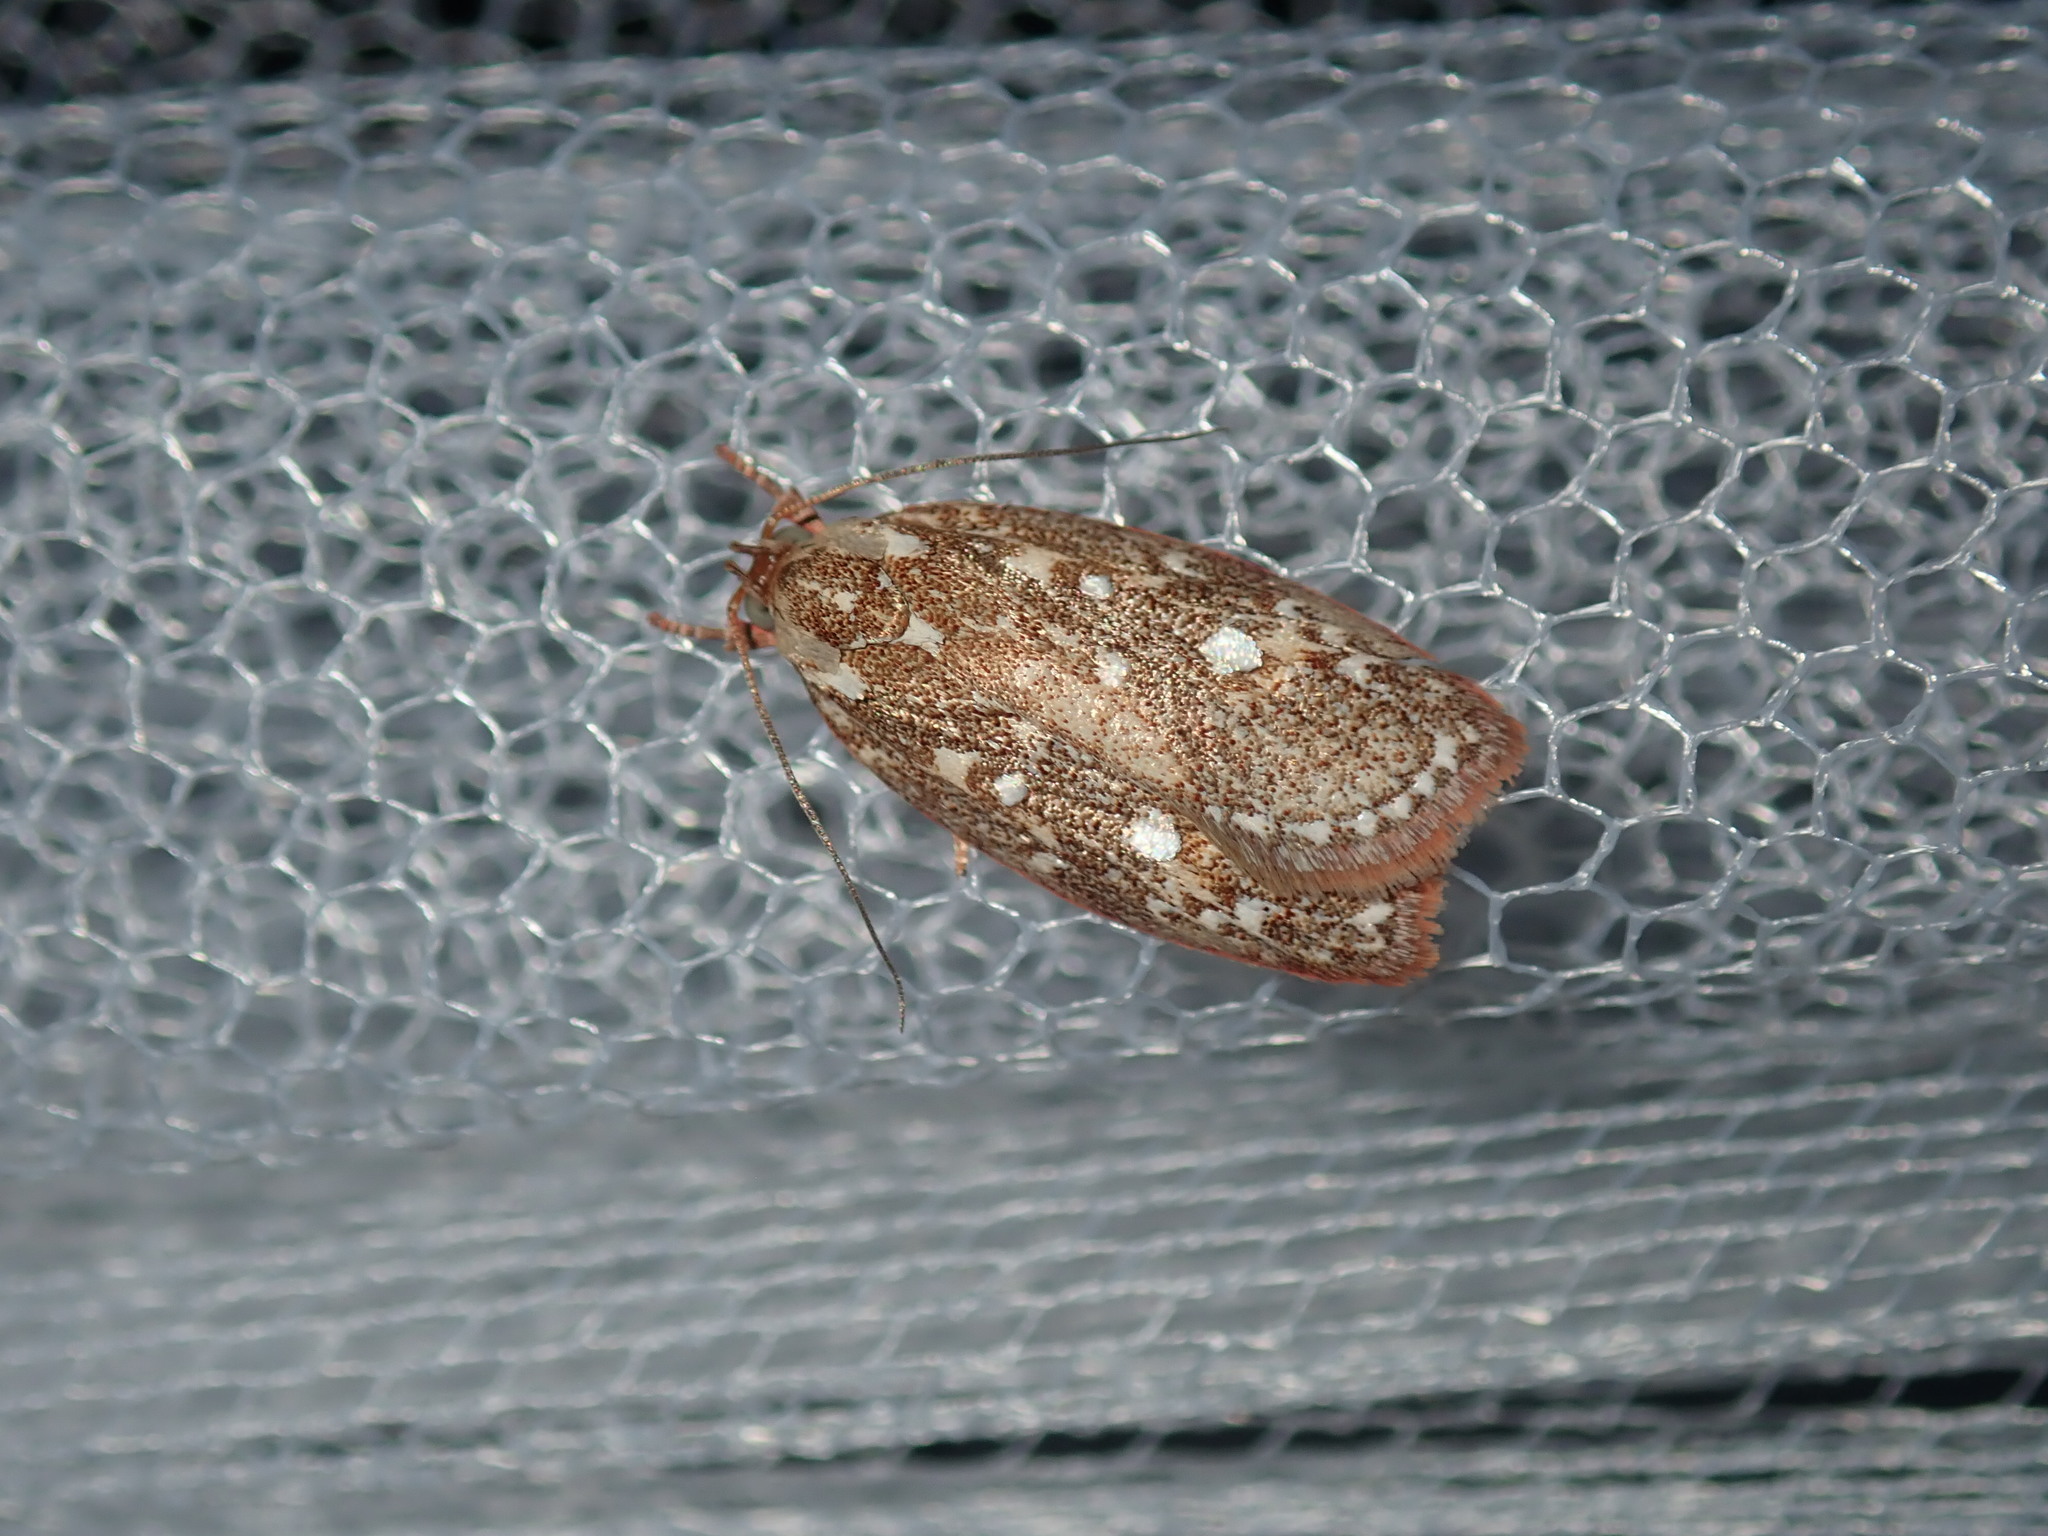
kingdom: Animalia
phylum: Arthropoda
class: Insecta
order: Lepidoptera
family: Oecophoridae
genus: Euchaetis
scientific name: Euchaetis metallota
